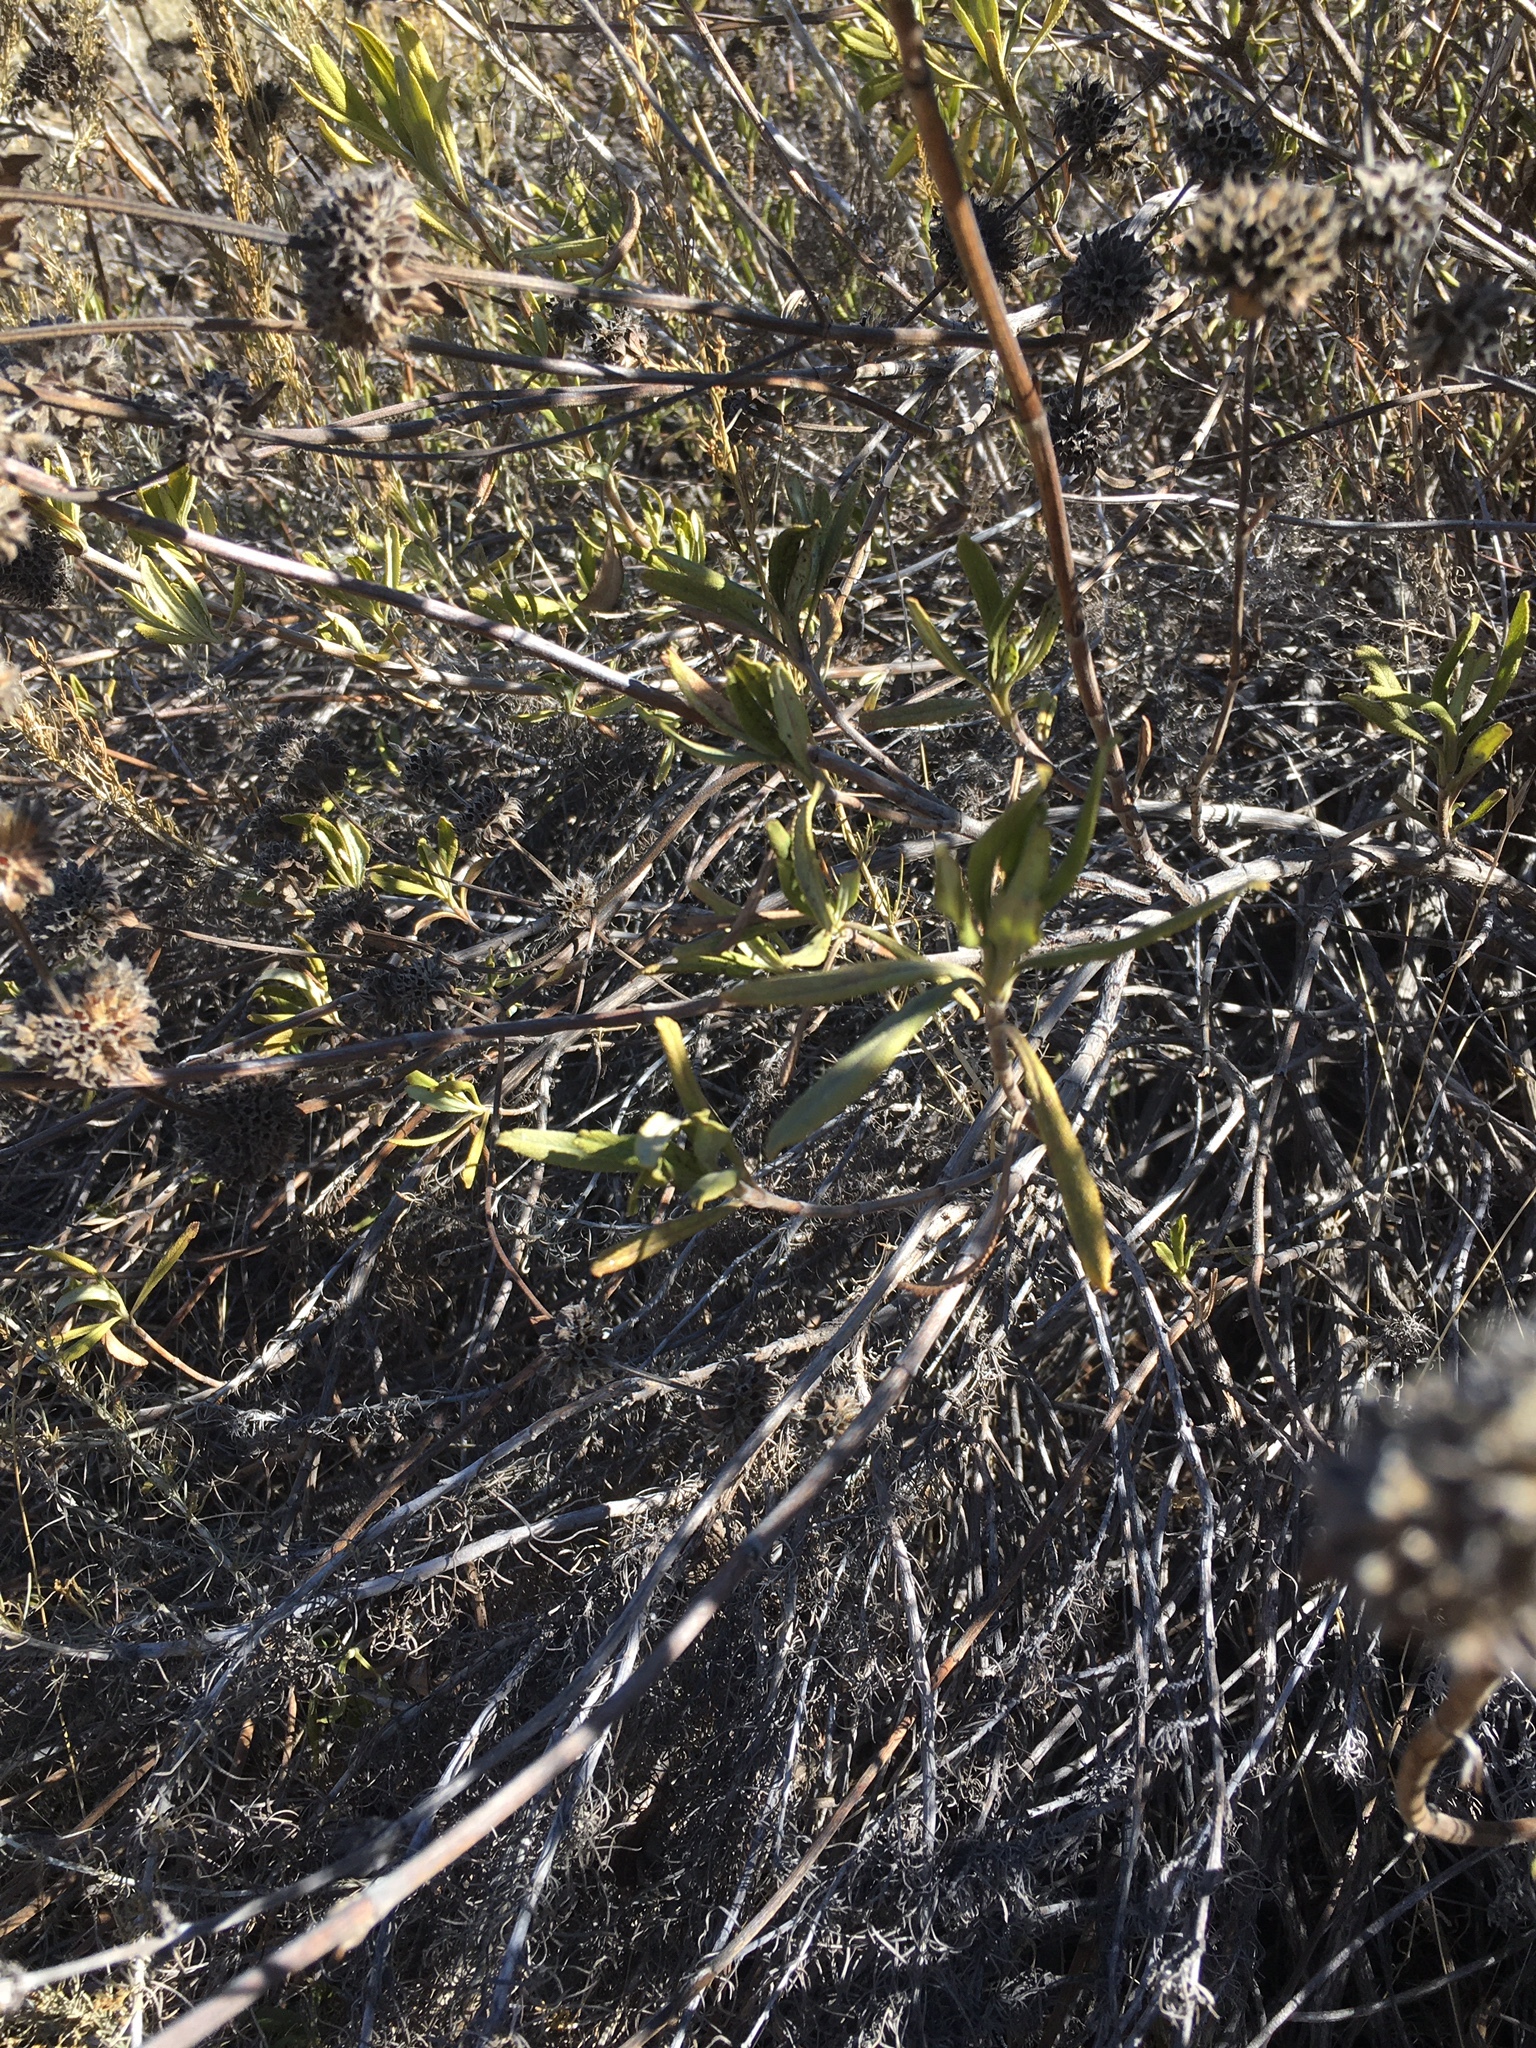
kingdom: Plantae
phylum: Tracheophyta
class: Magnoliopsida
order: Lamiales
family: Lamiaceae
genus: Salvia
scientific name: Salvia mellifera
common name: Black sage
